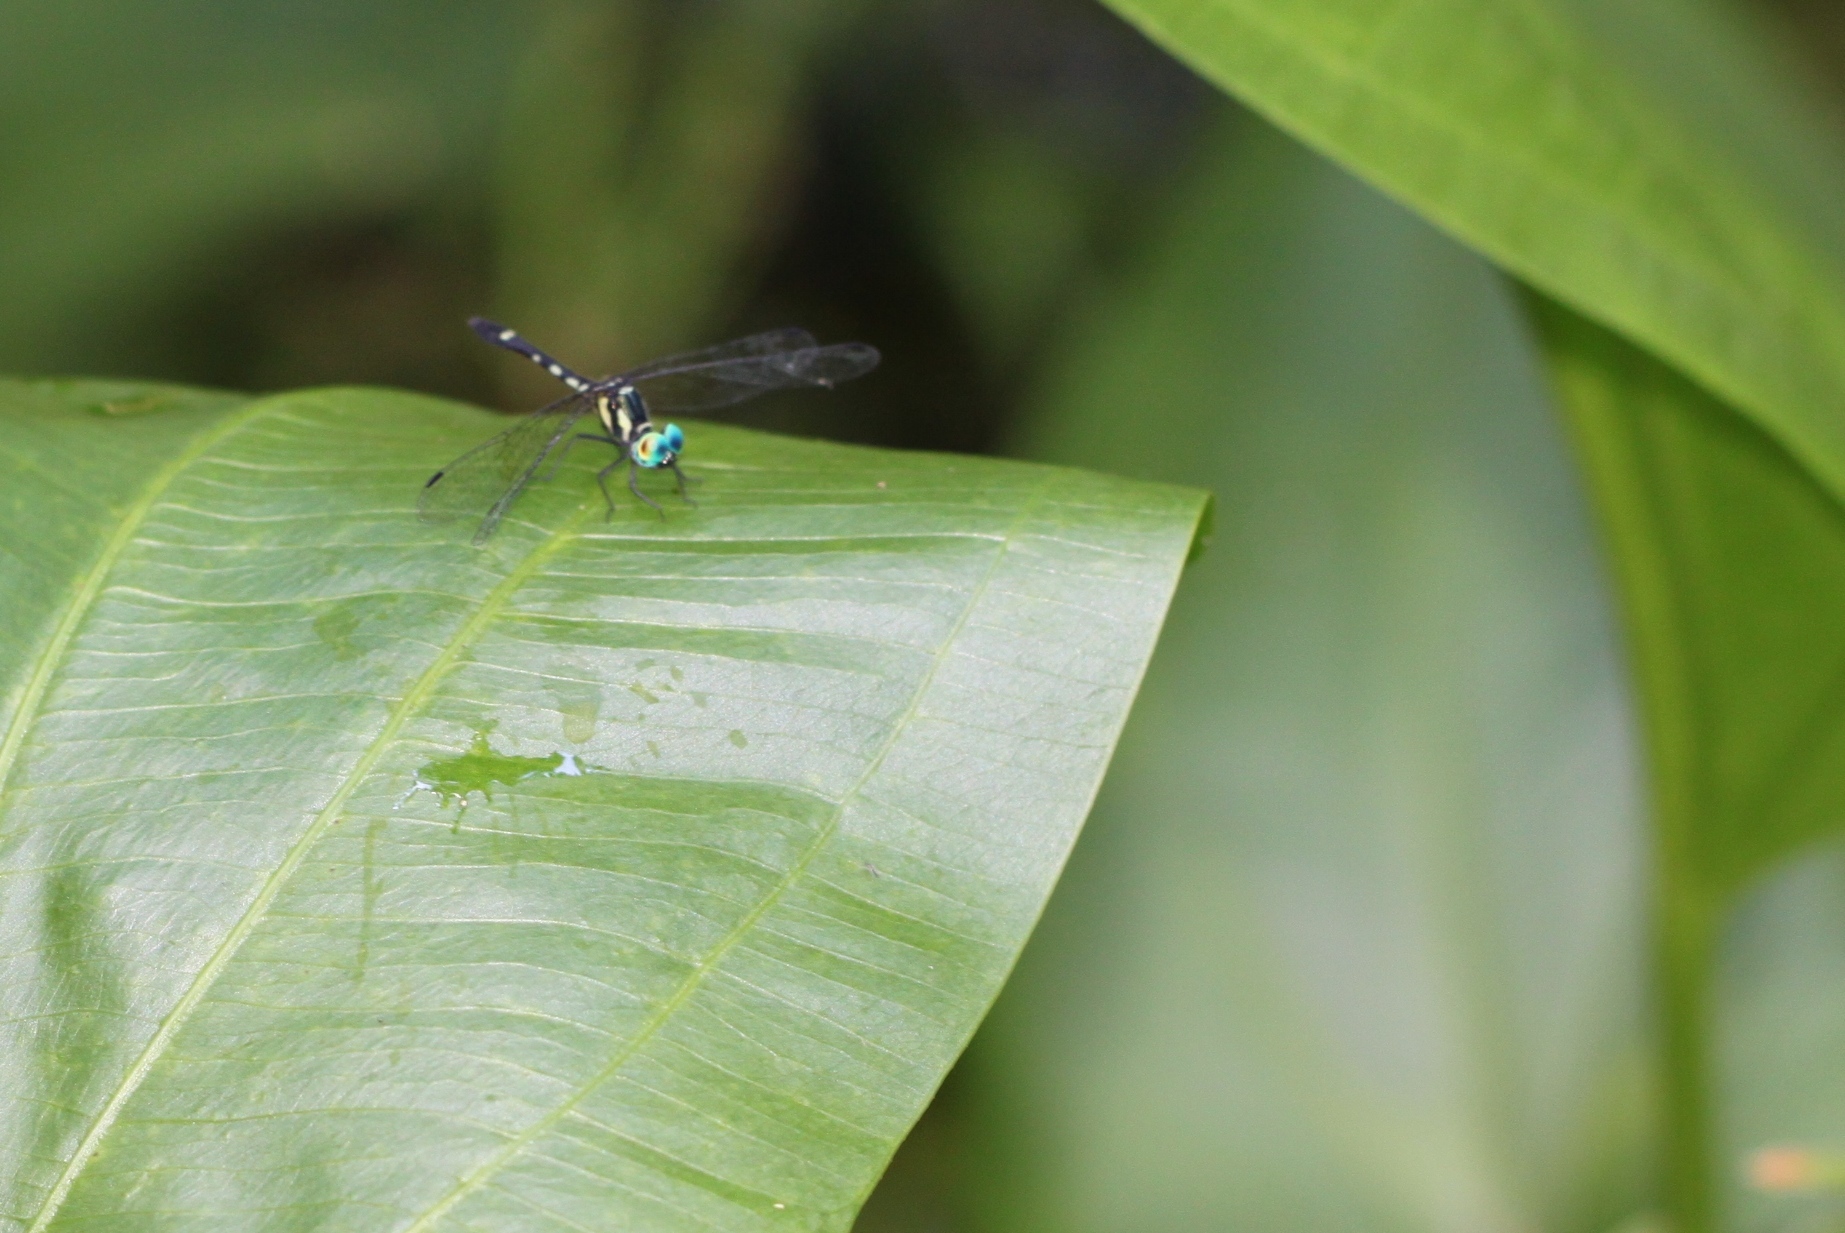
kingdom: Animalia
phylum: Arthropoda
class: Insecta
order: Odonata
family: Libellulidae
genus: Tetrathemis
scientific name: Tetrathemis platyptera
